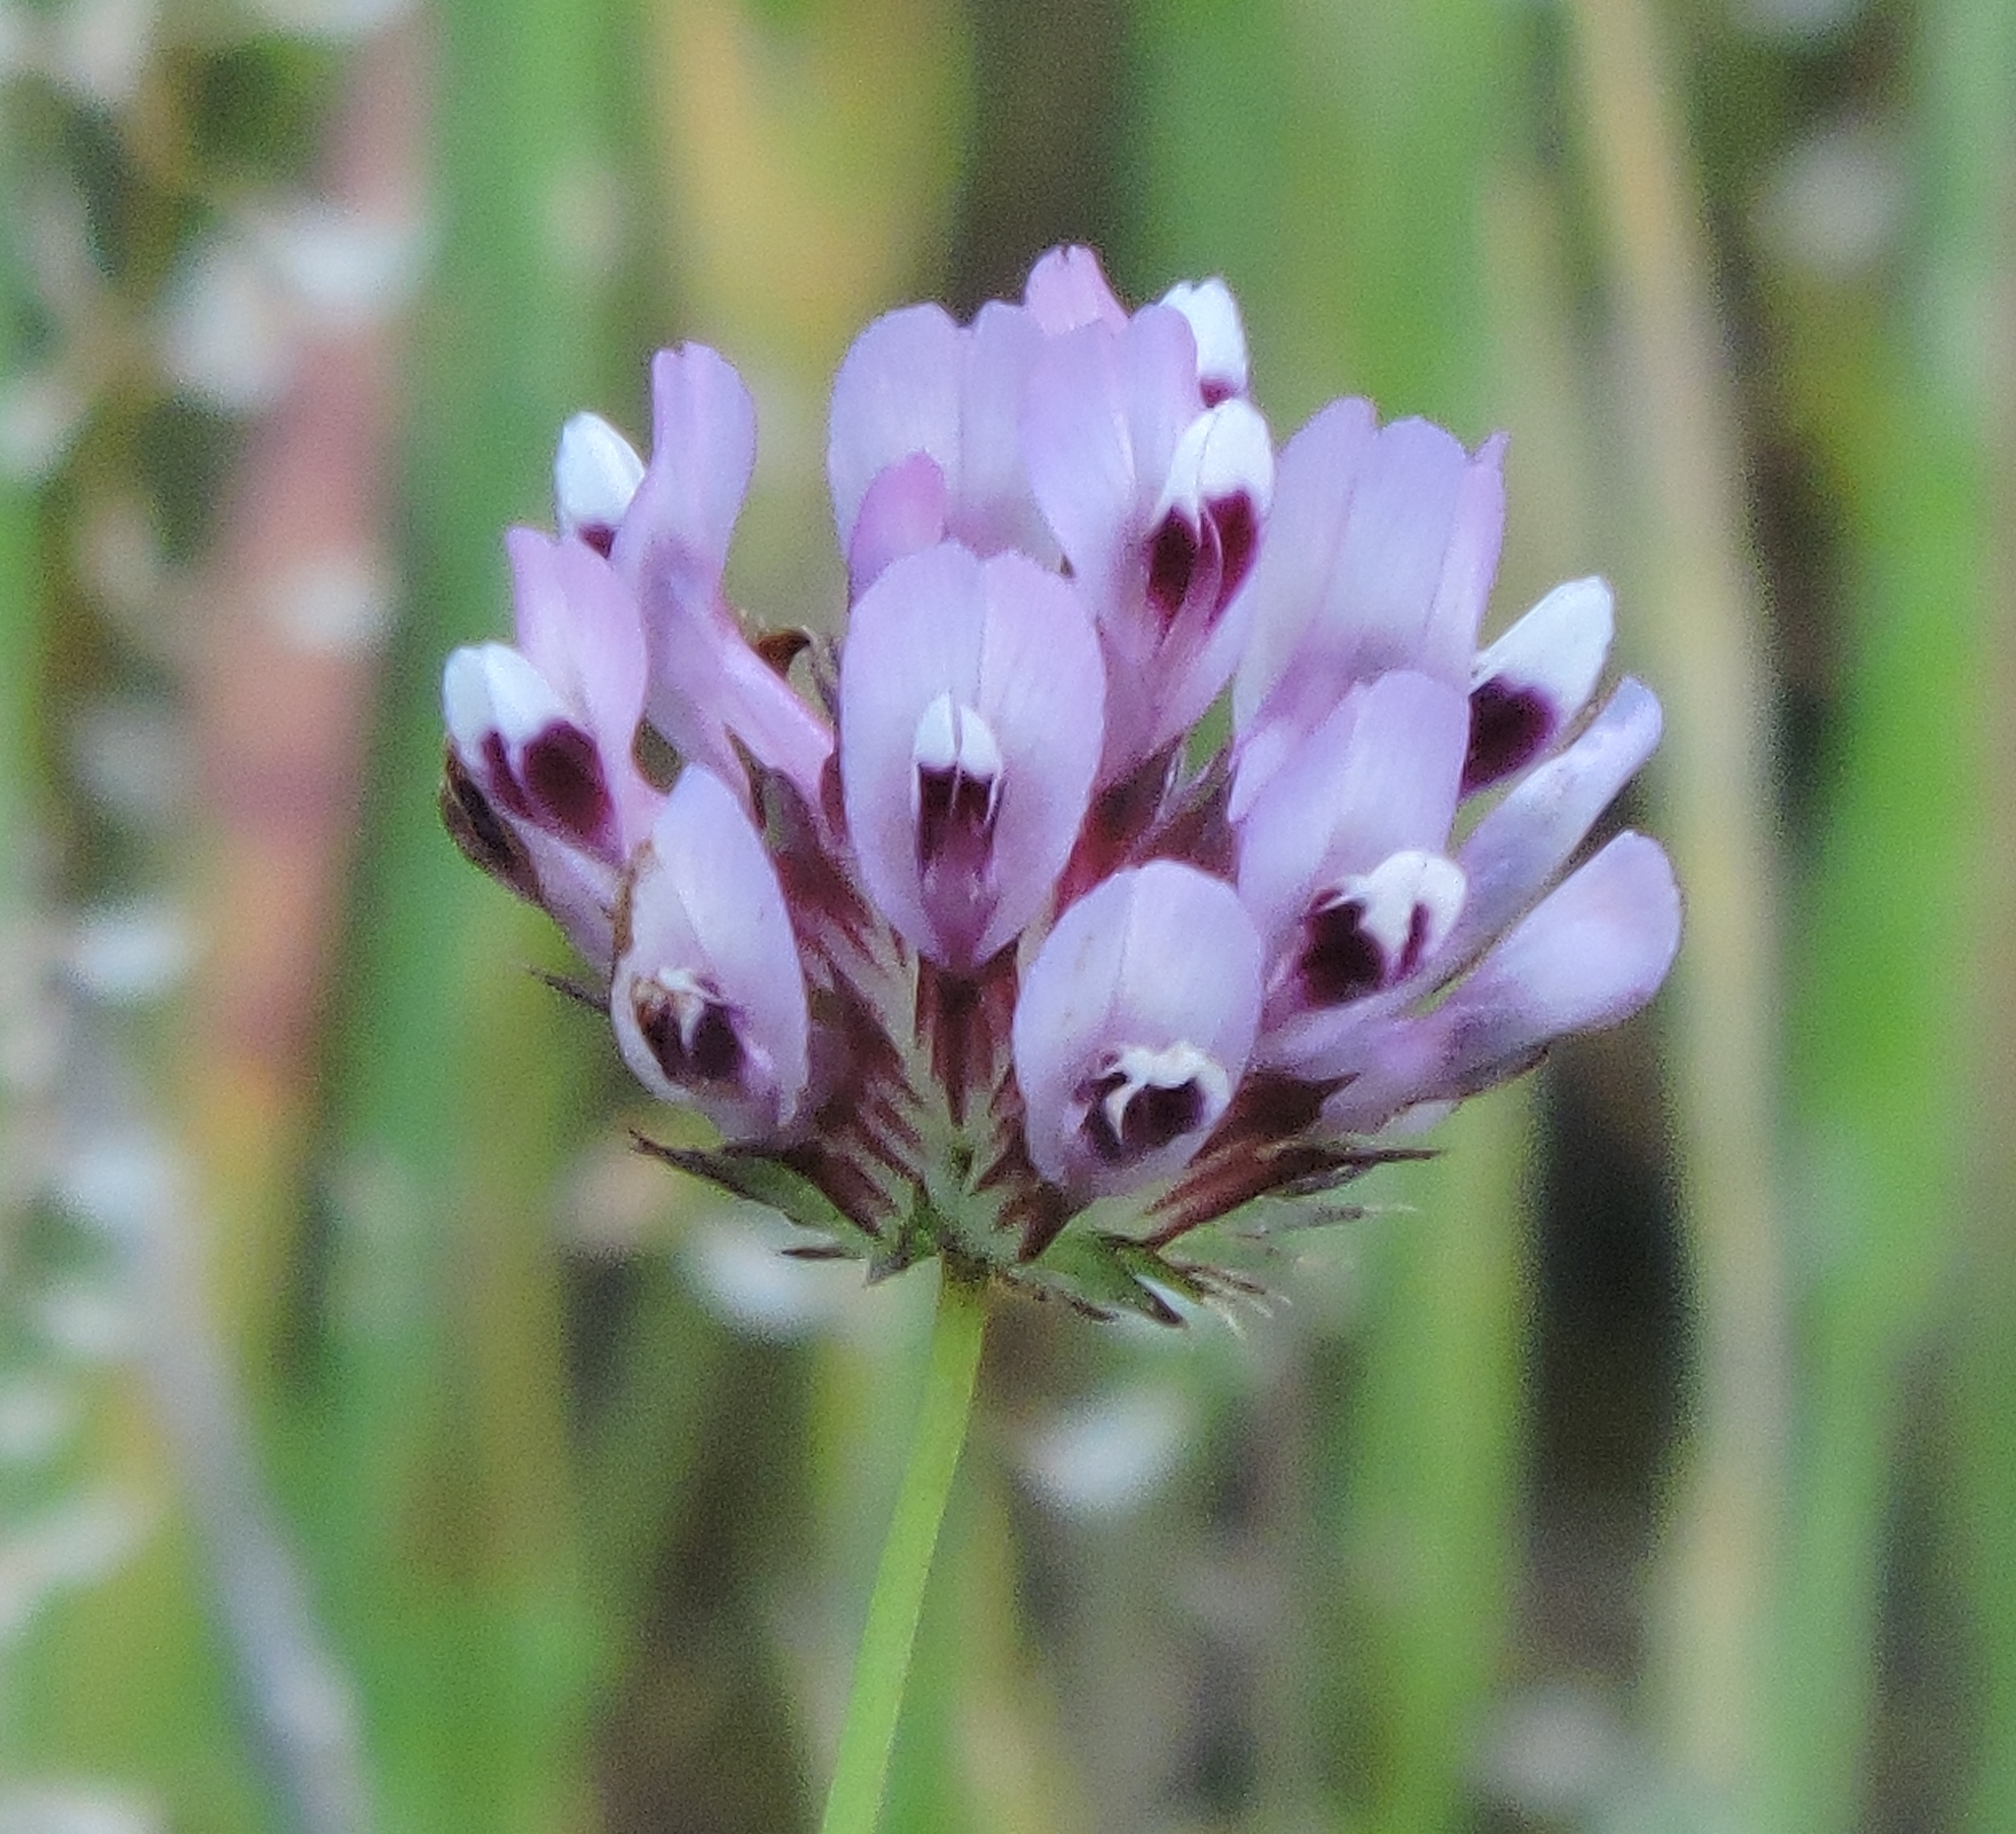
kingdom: Plantae
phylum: Tracheophyta
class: Magnoliopsida
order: Fabales
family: Fabaceae
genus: Trifolium
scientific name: Trifolium willdenovii
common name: Tomcat clover
